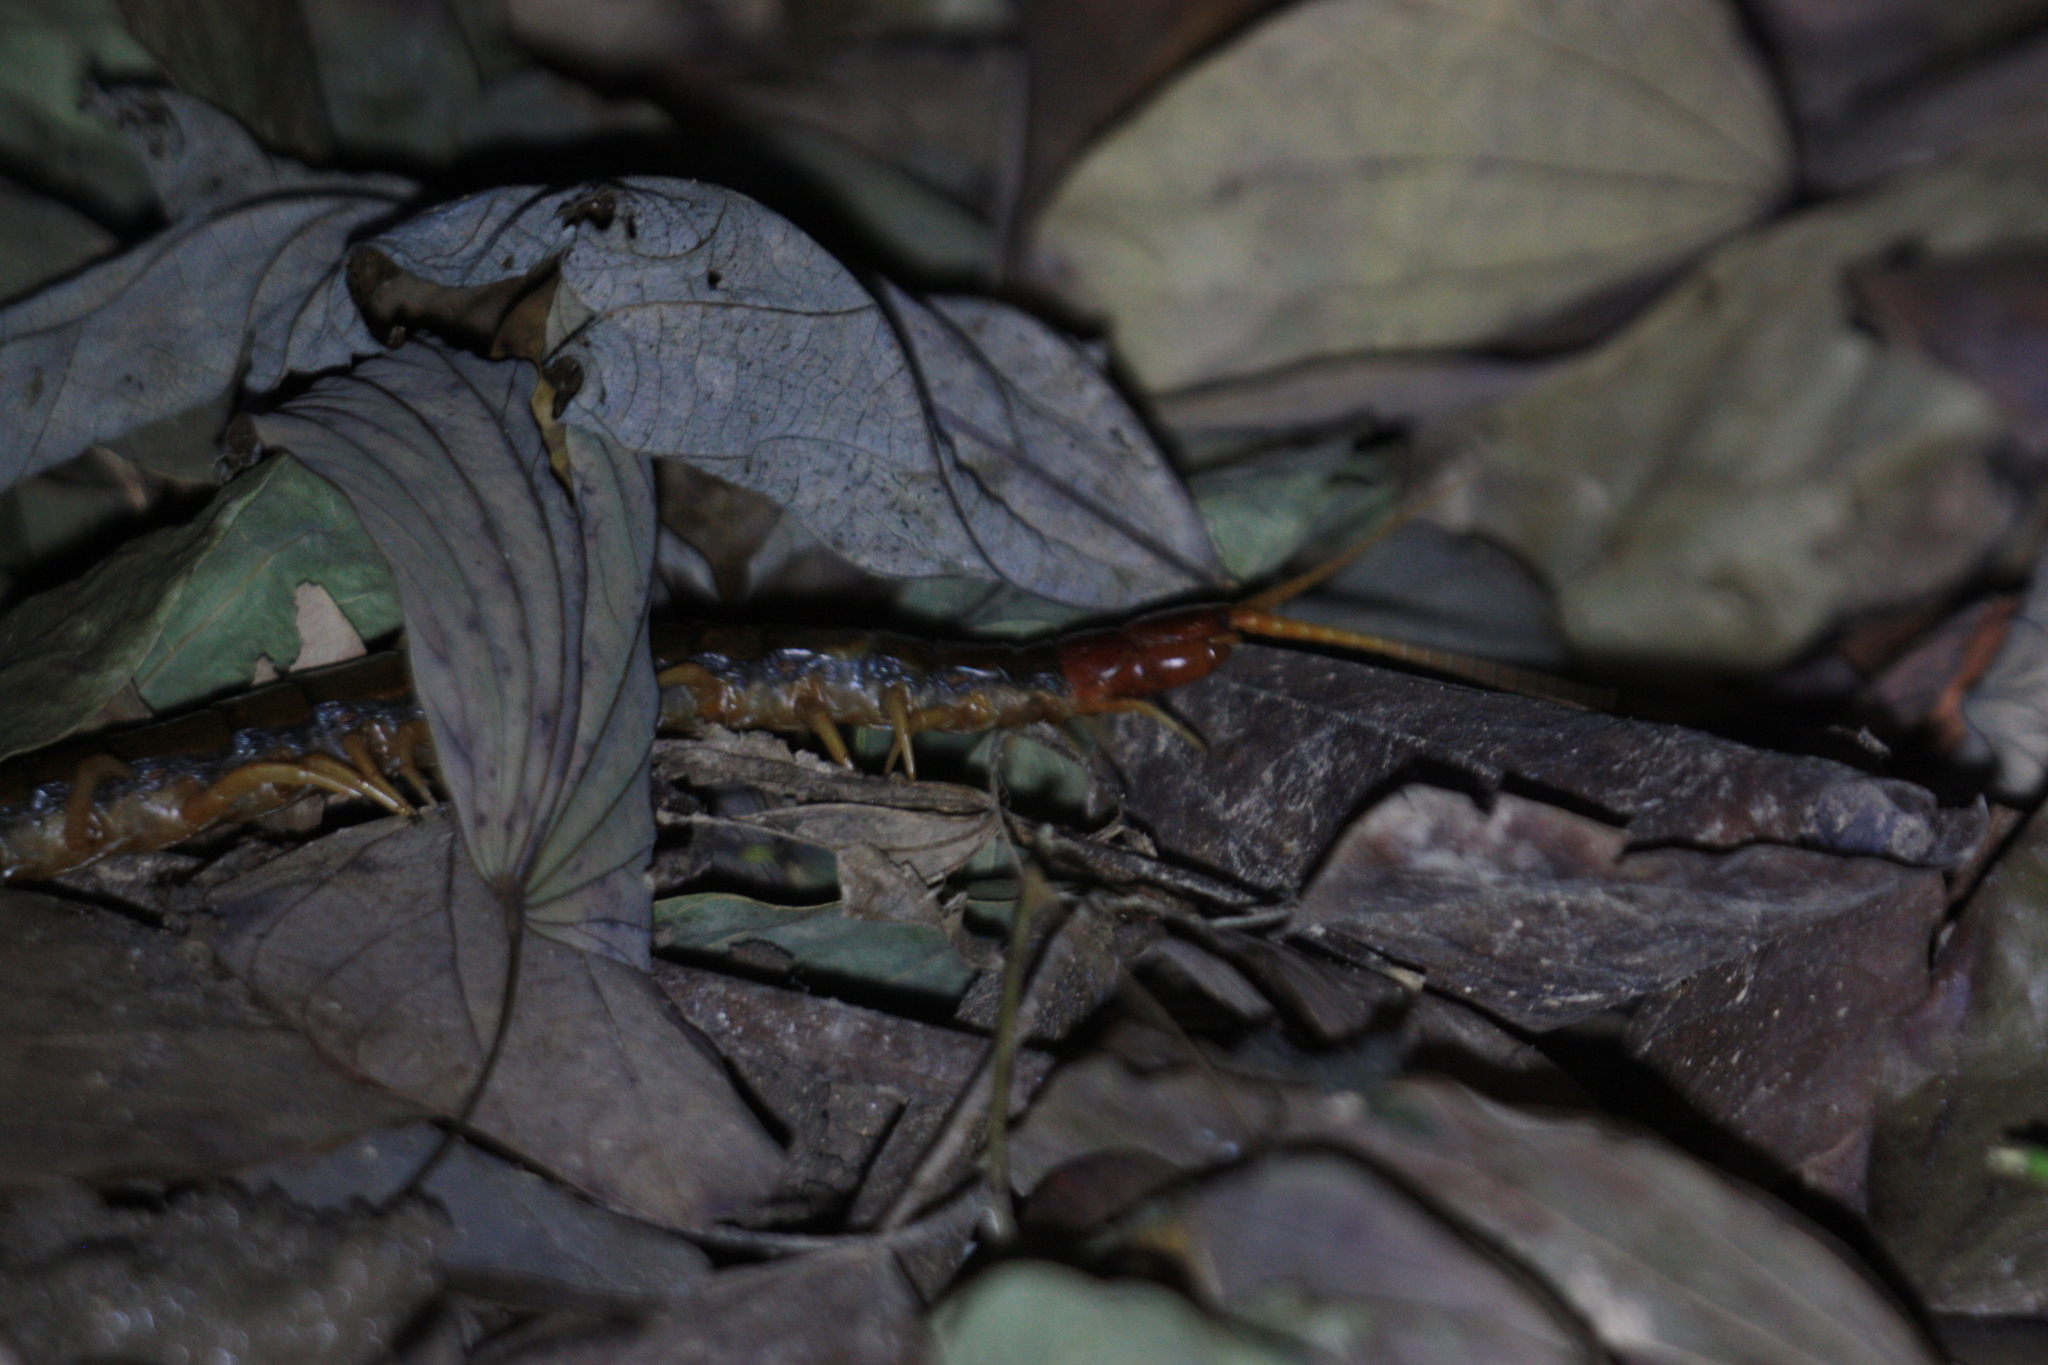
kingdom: Animalia
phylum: Arthropoda
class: Chilopoda
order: Scolopendromorpha
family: Scolopendridae
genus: Scolopendra
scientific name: Scolopendra mutilans
